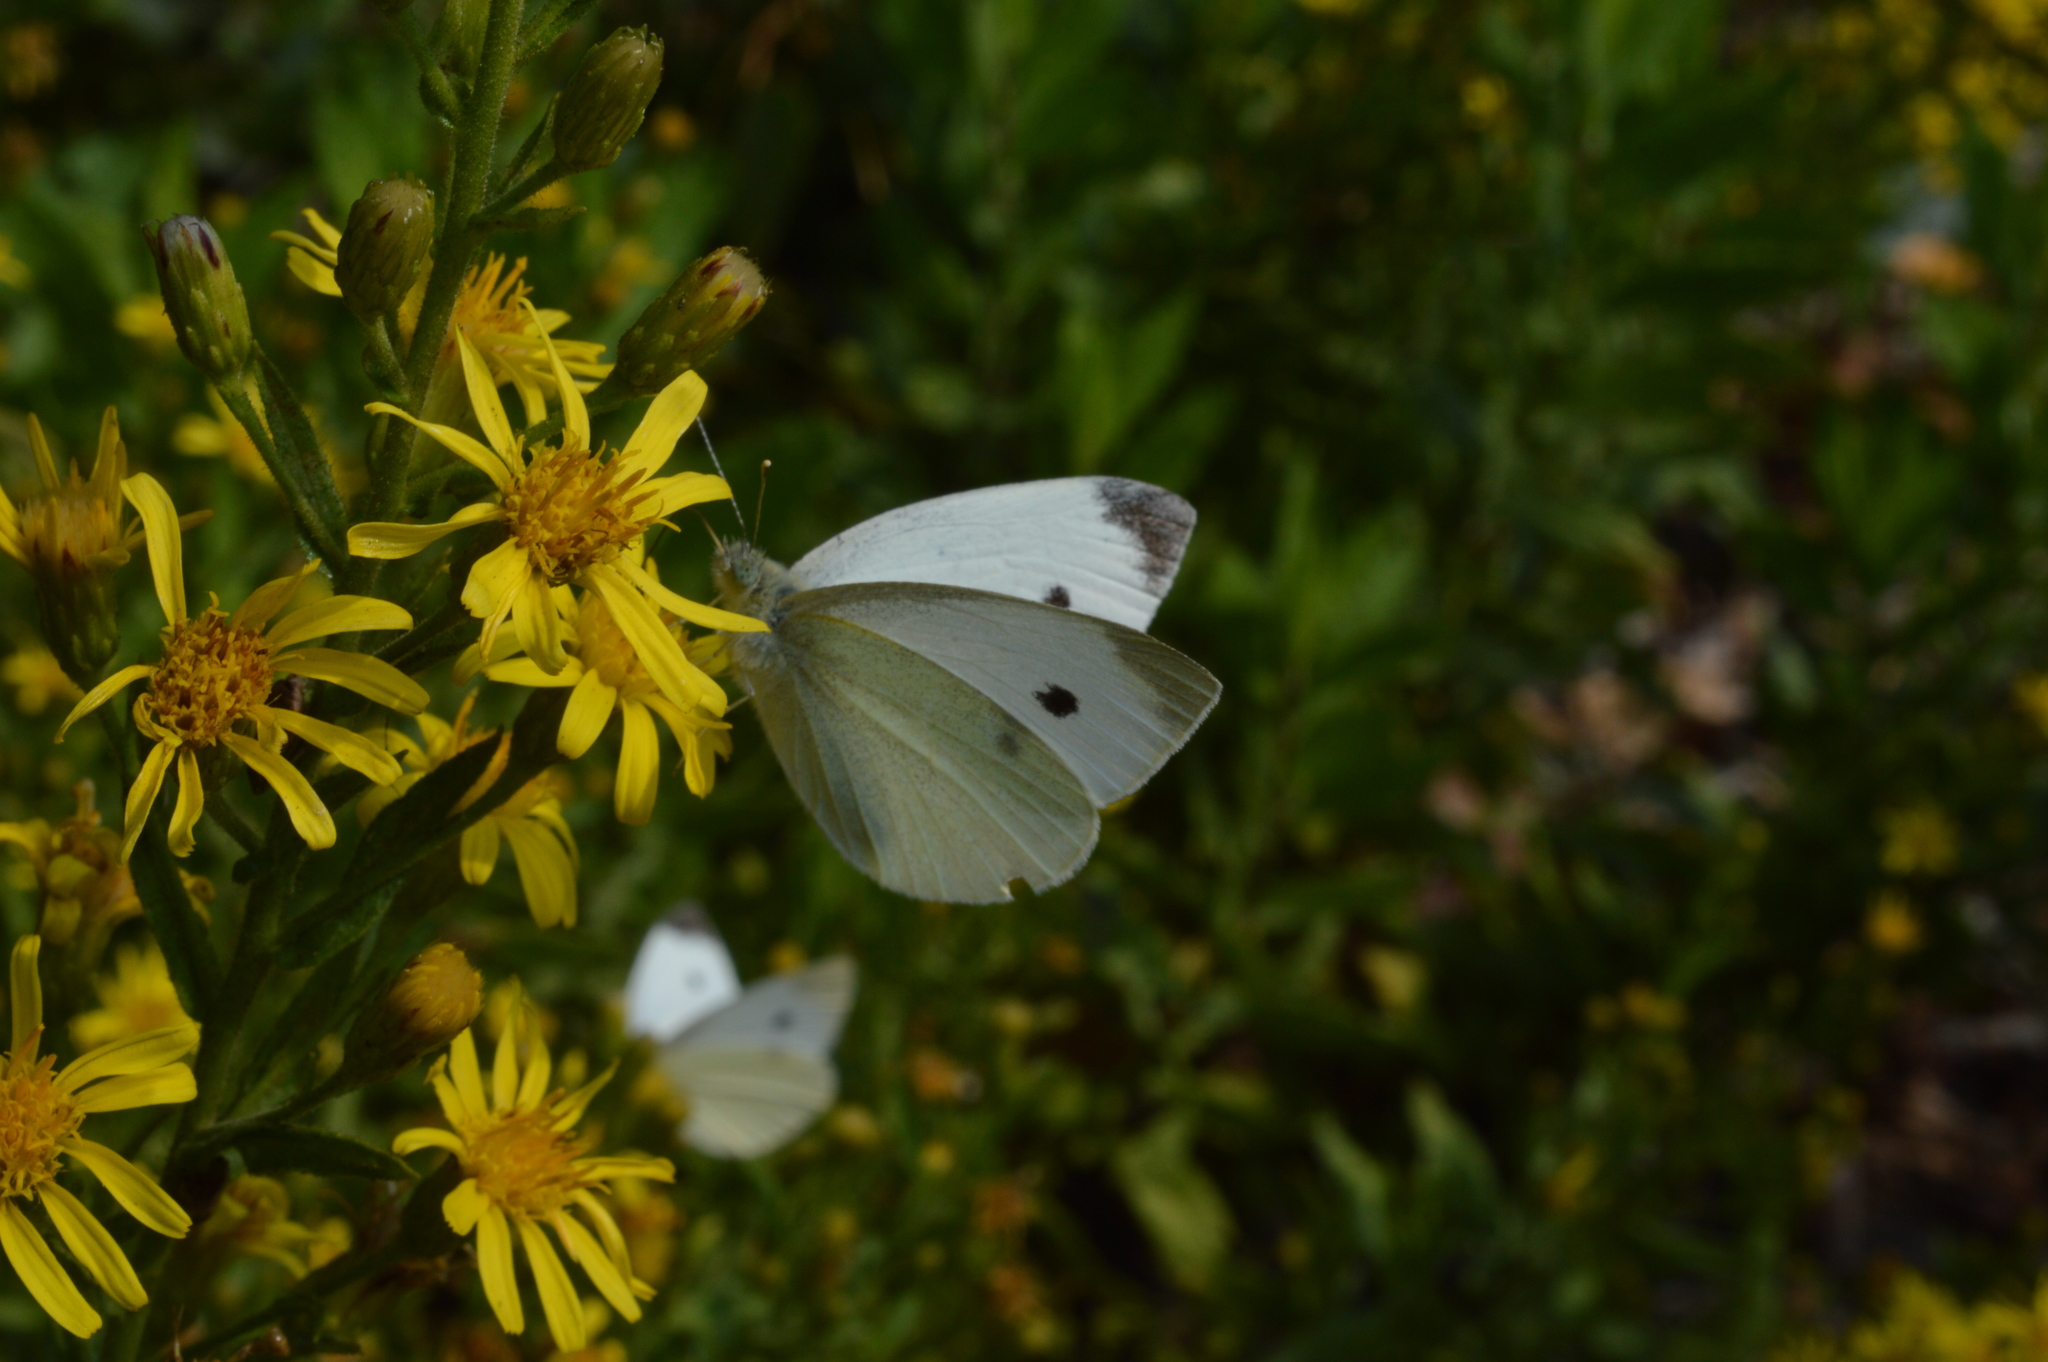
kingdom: Animalia
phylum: Arthropoda
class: Insecta
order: Lepidoptera
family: Pieridae
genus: Pieris
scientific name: Pieris rapae
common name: Small white
